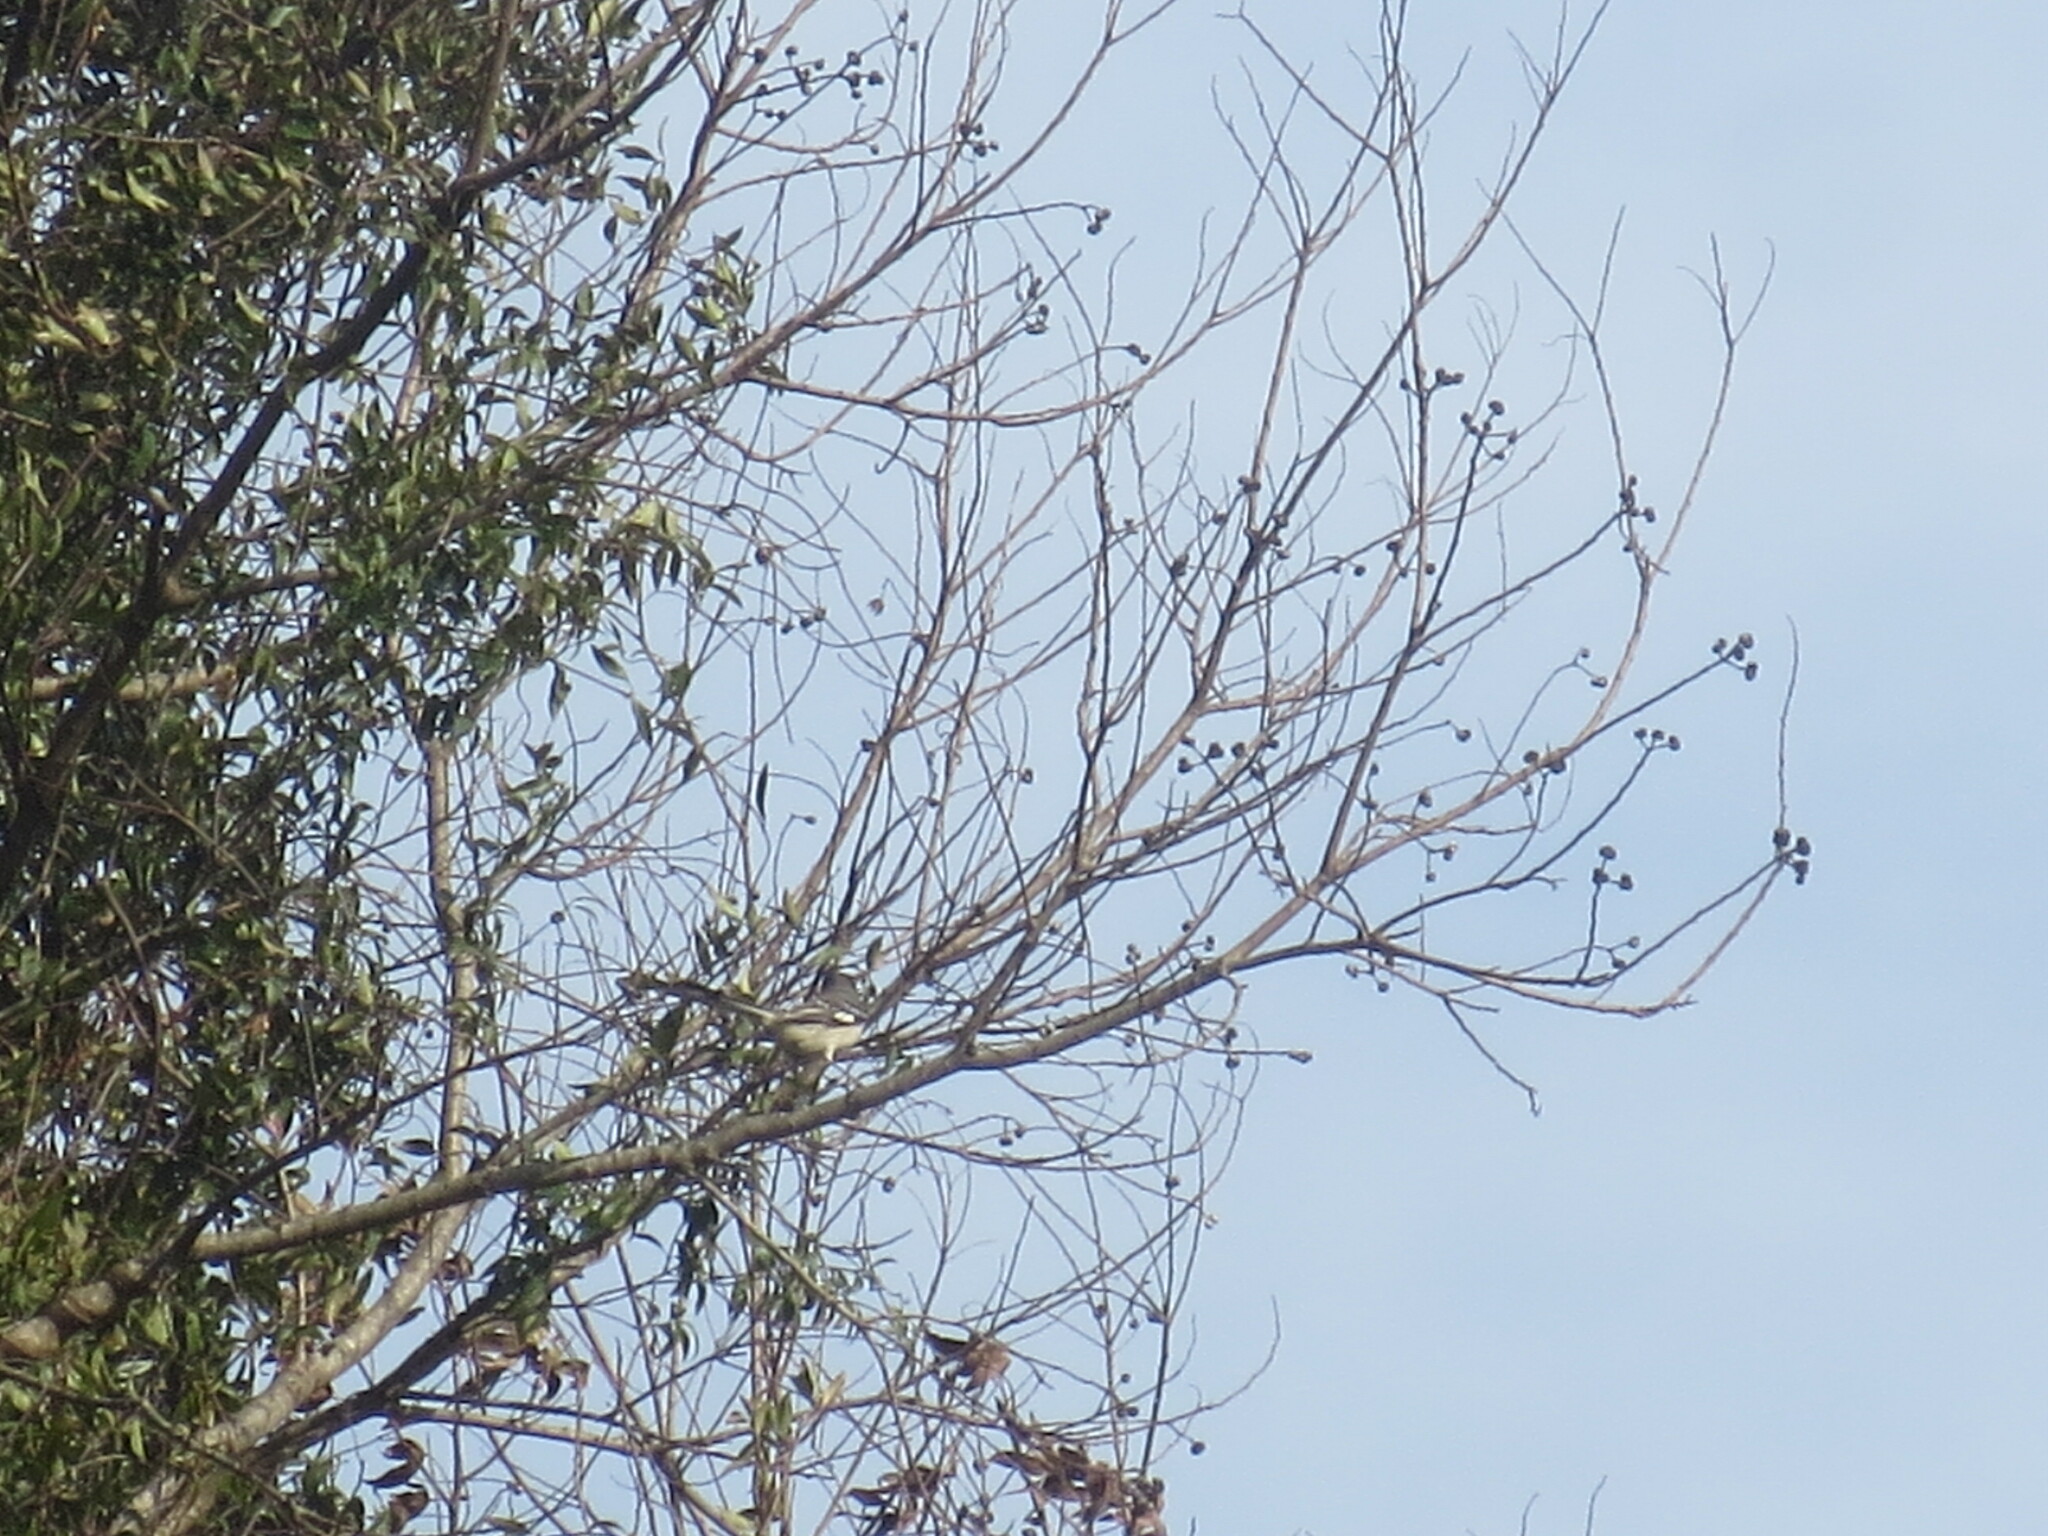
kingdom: Animalia
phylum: Chordata
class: Aves
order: Passeriformes
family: Mimidae
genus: Mimus
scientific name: Mimus polyglottos
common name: Northern mockingbird
